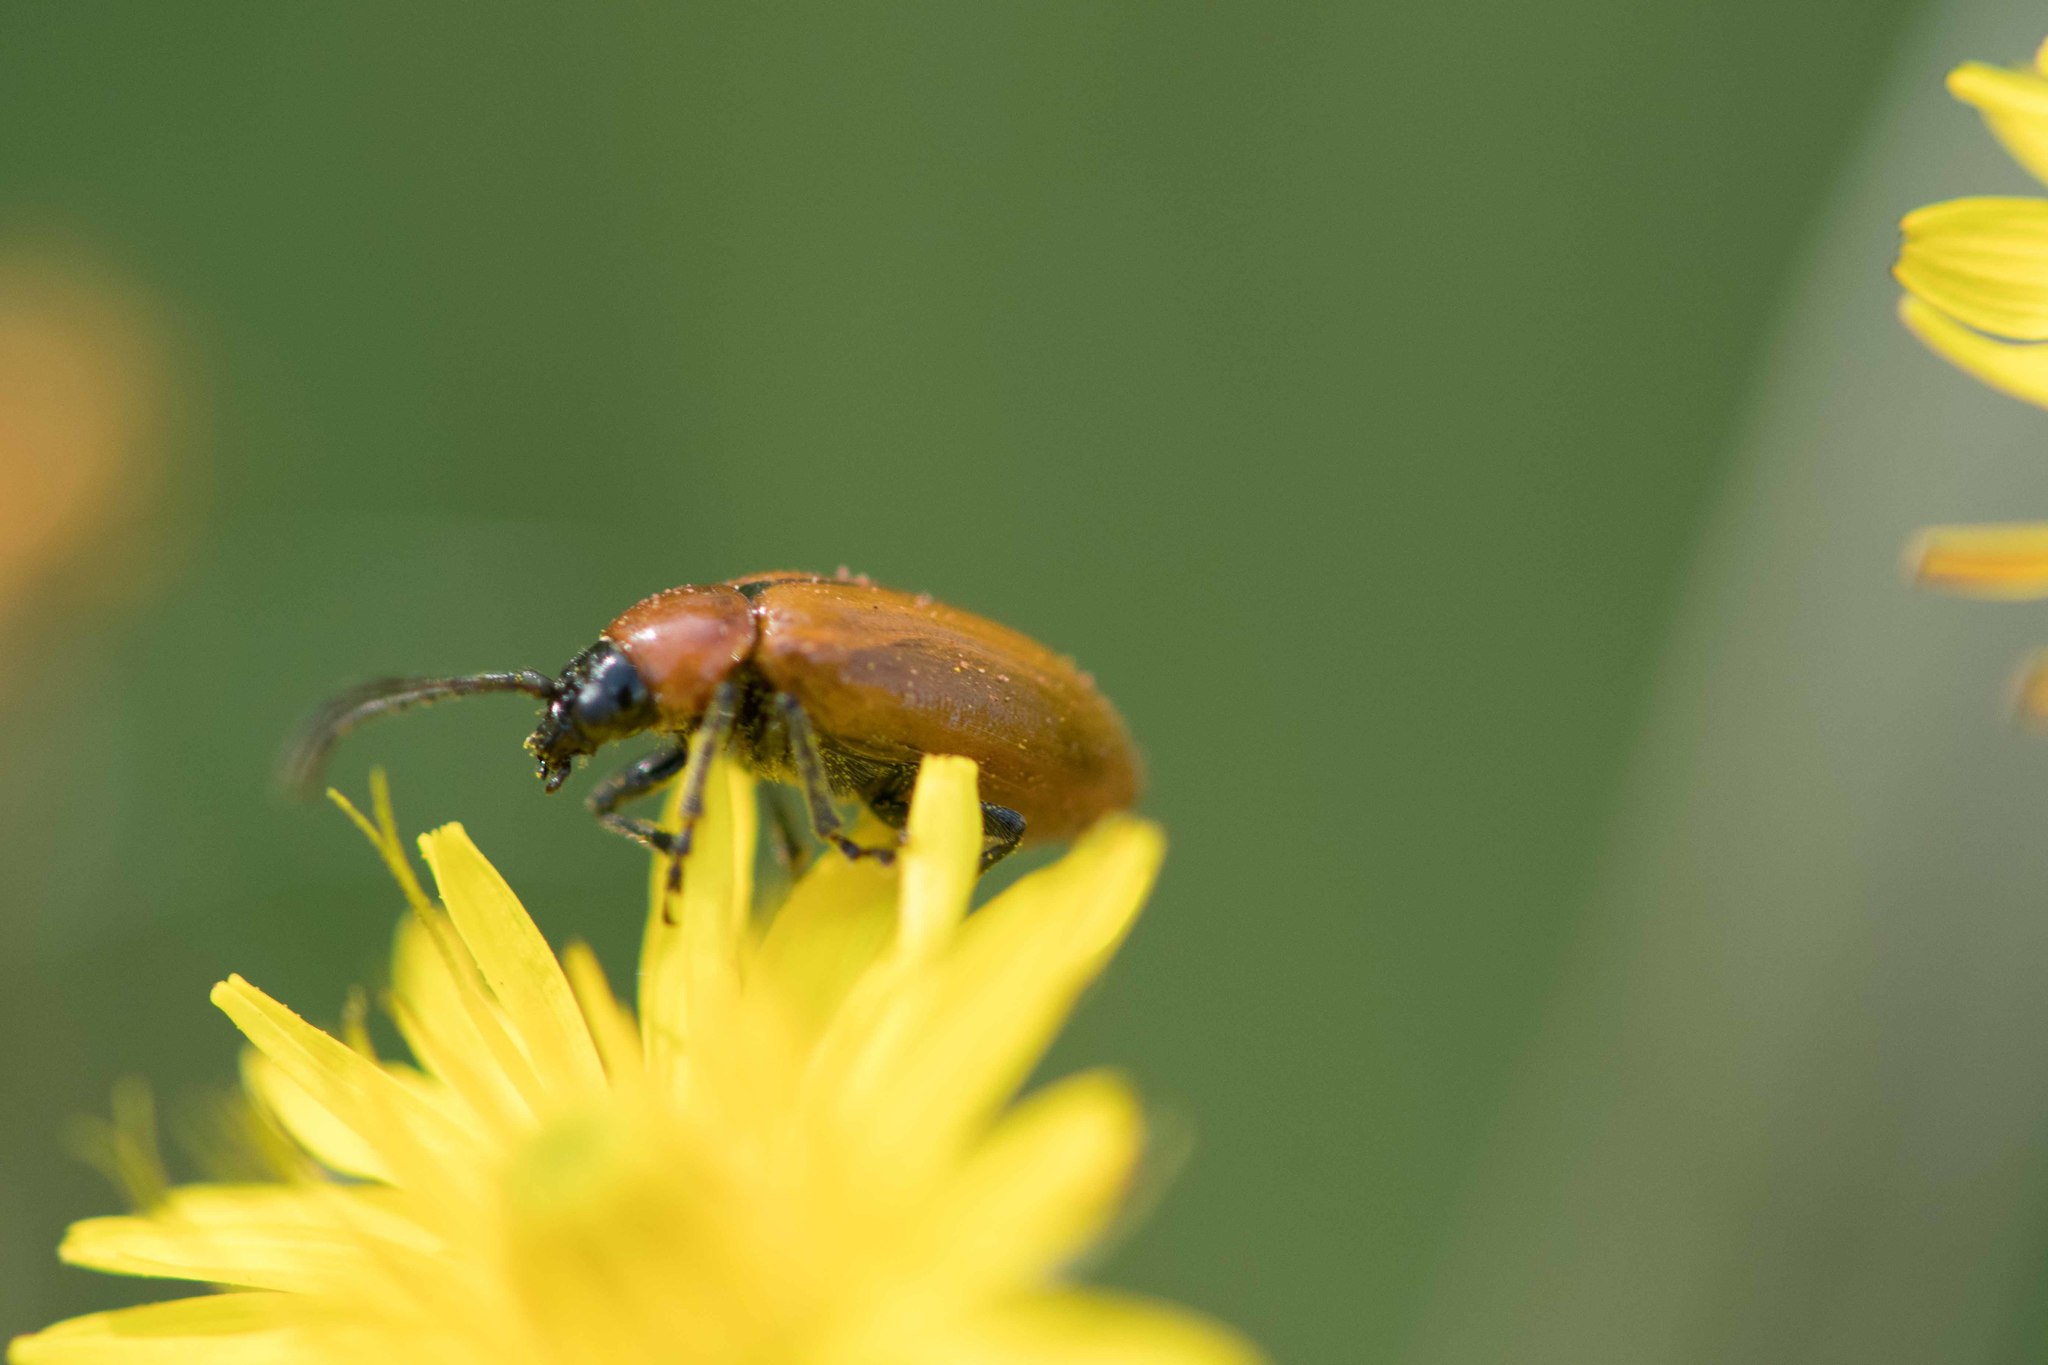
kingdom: Animalia
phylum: Arthropoda
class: Insecta
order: Coleoptera
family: Chrysomelidae
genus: Exosoma
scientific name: Exosoma lusitanicum
